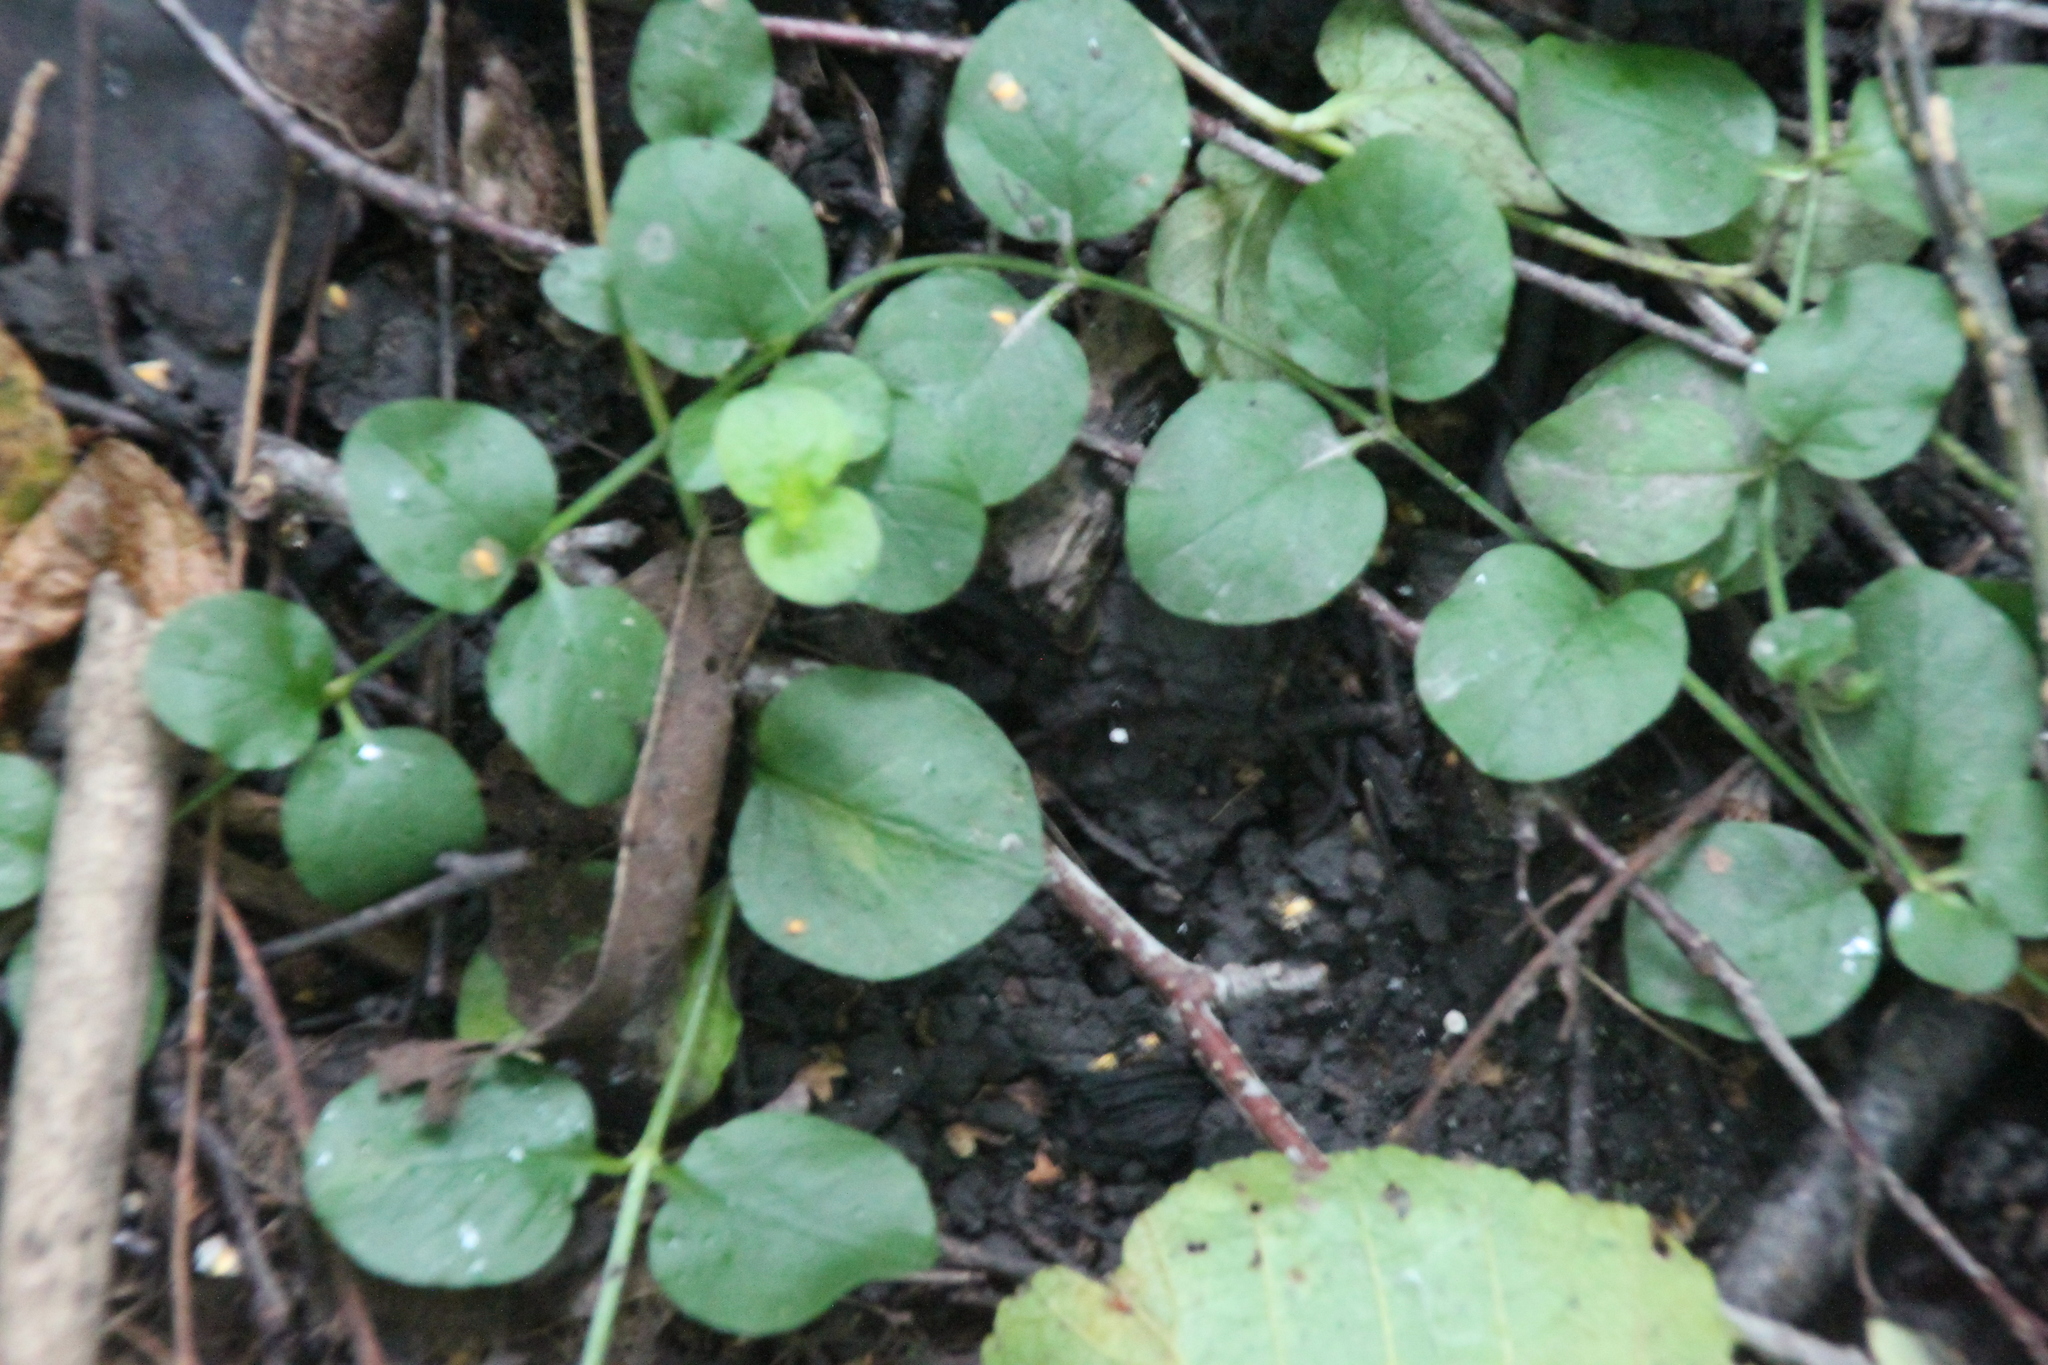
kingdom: Plantae
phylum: Tracheophyta
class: Magnoliopsida
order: Ericales
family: Primulaceae
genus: Lysimachia
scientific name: Lysimachia nummularia
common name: Moneywort
